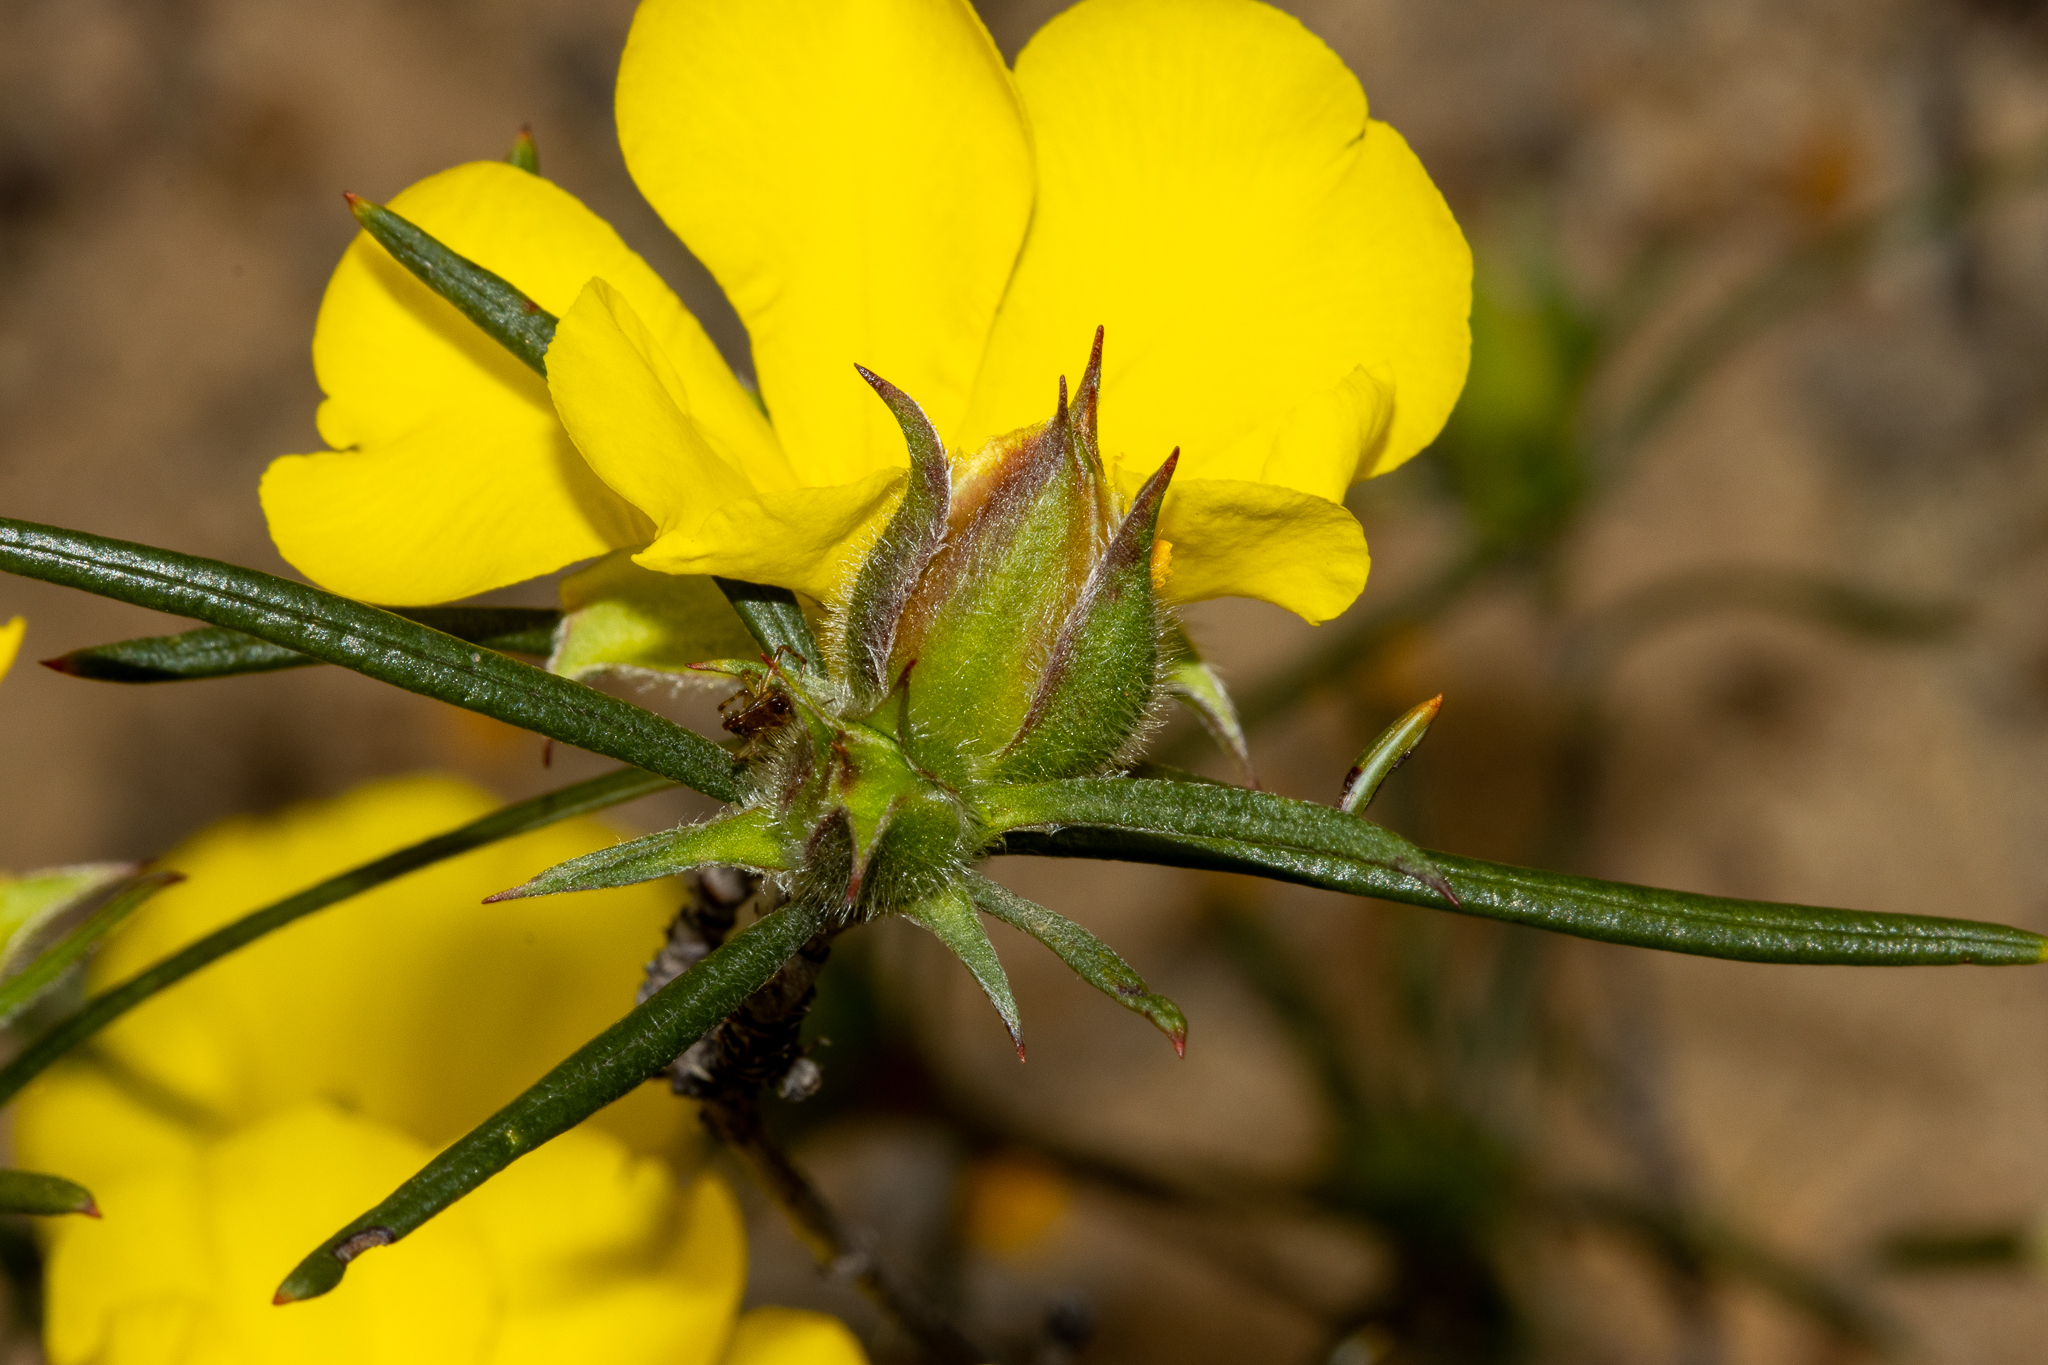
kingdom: Plantae
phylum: Tracheophyta
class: Magnoliopsida
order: Dilleniales
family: Dilleniaceae
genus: Hibbertia
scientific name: Hibbertia
